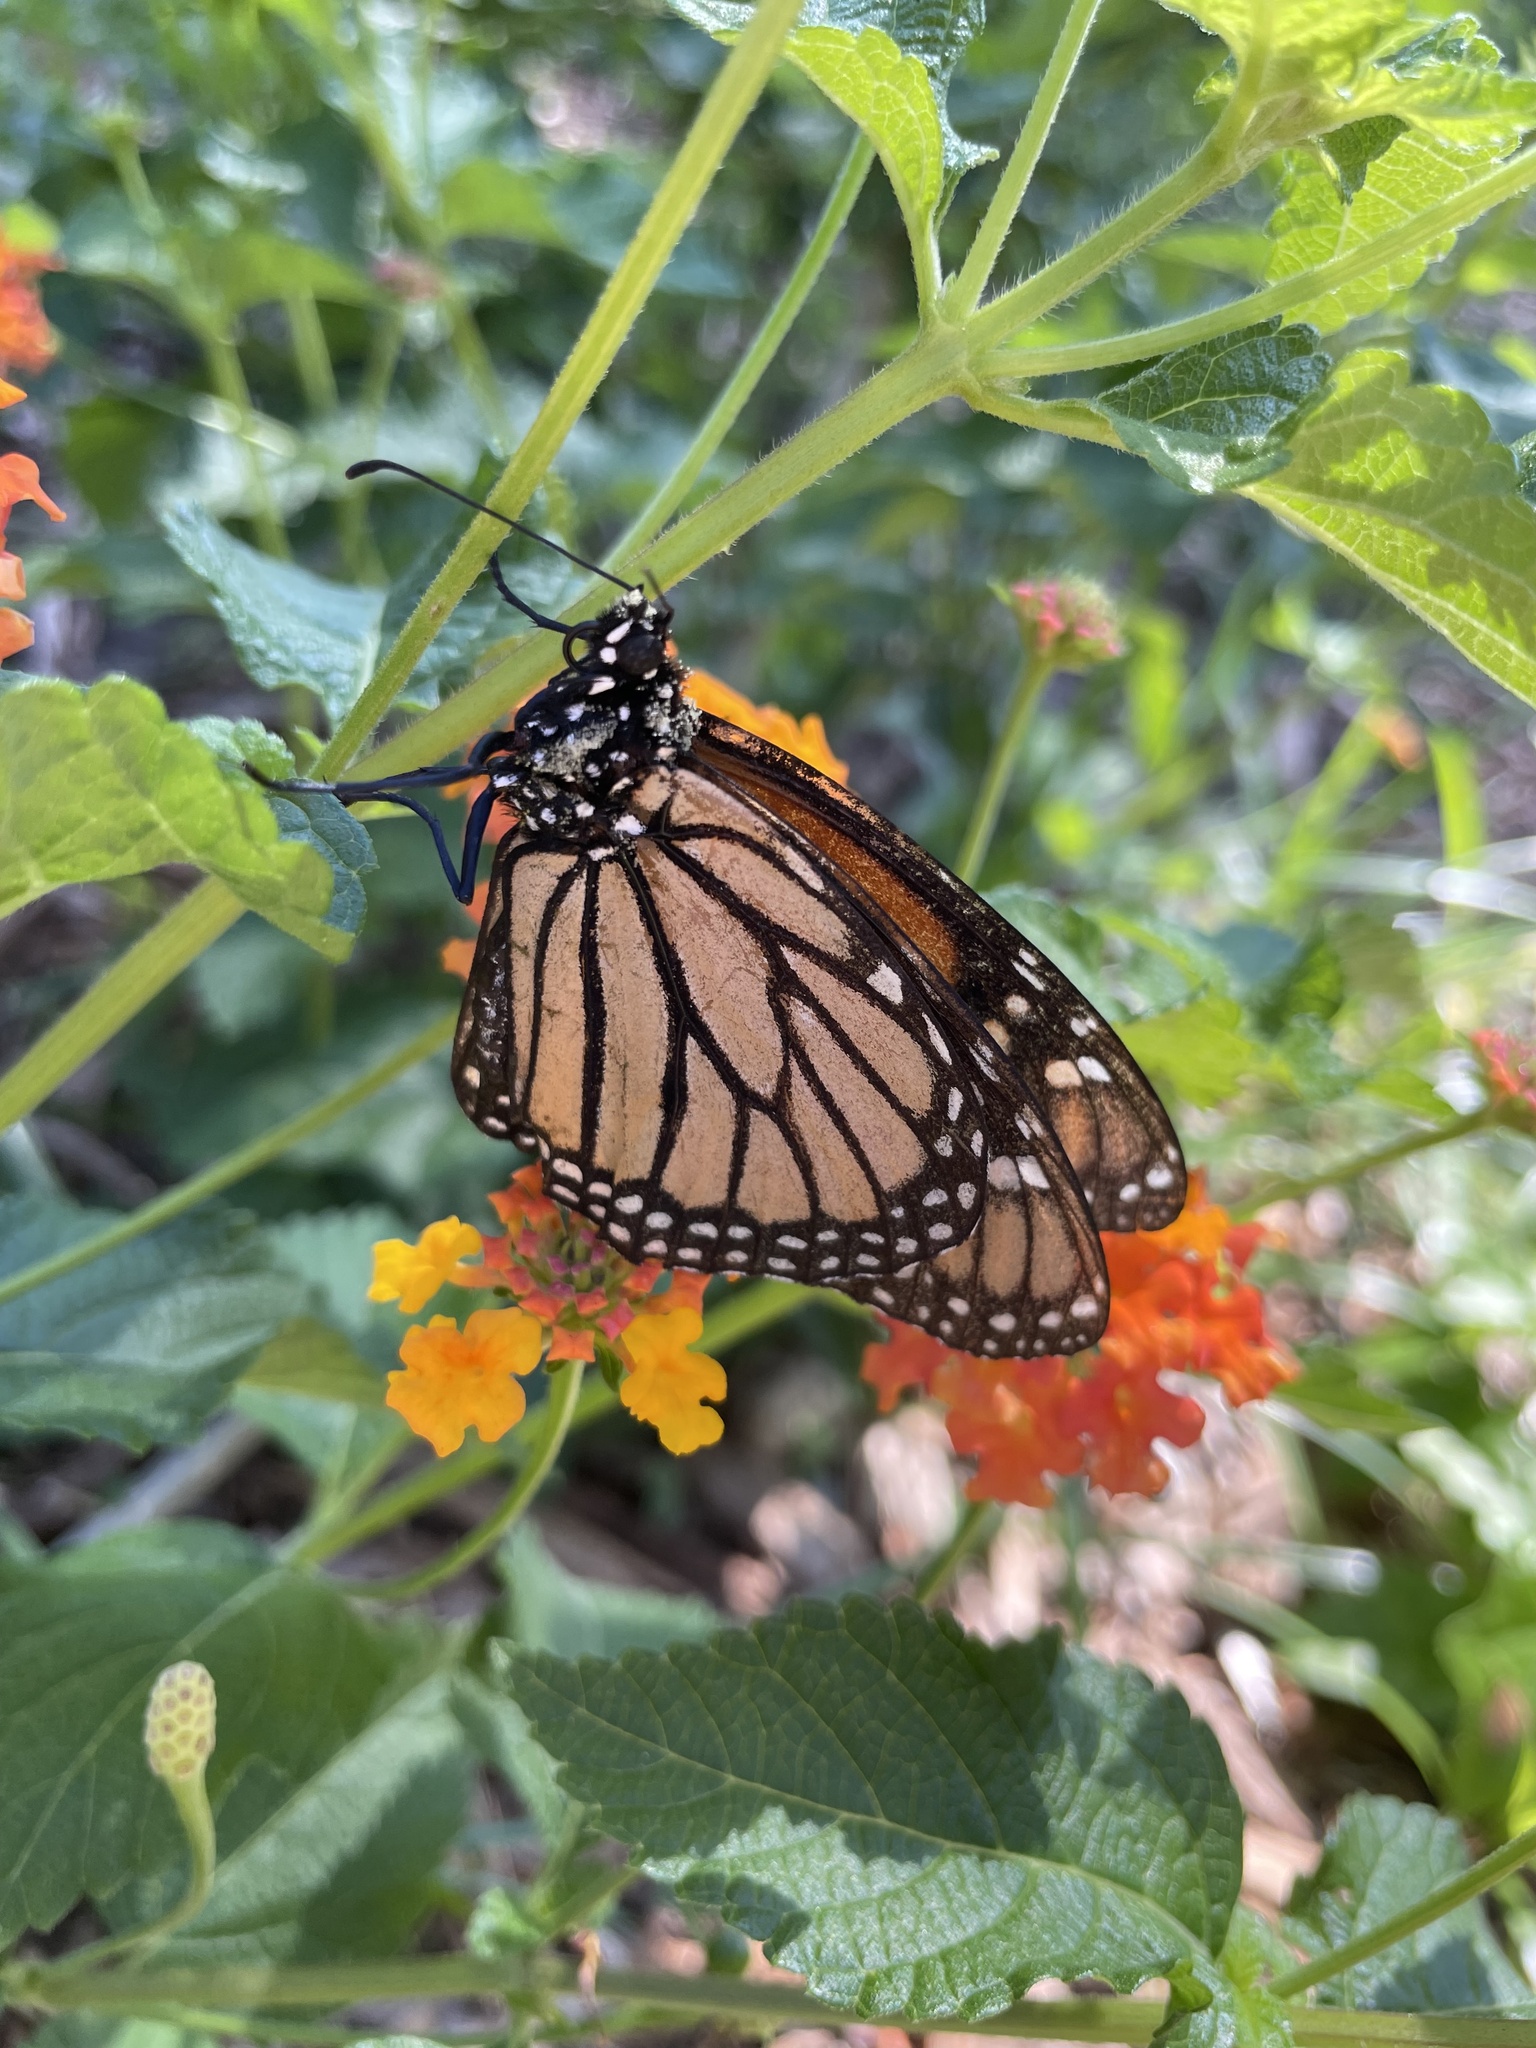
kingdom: Animalia
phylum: Arthropoda
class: Insecta
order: Lepidoptera
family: Nymphalidae
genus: Danaus
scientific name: Danaus plexippus
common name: Monarch
